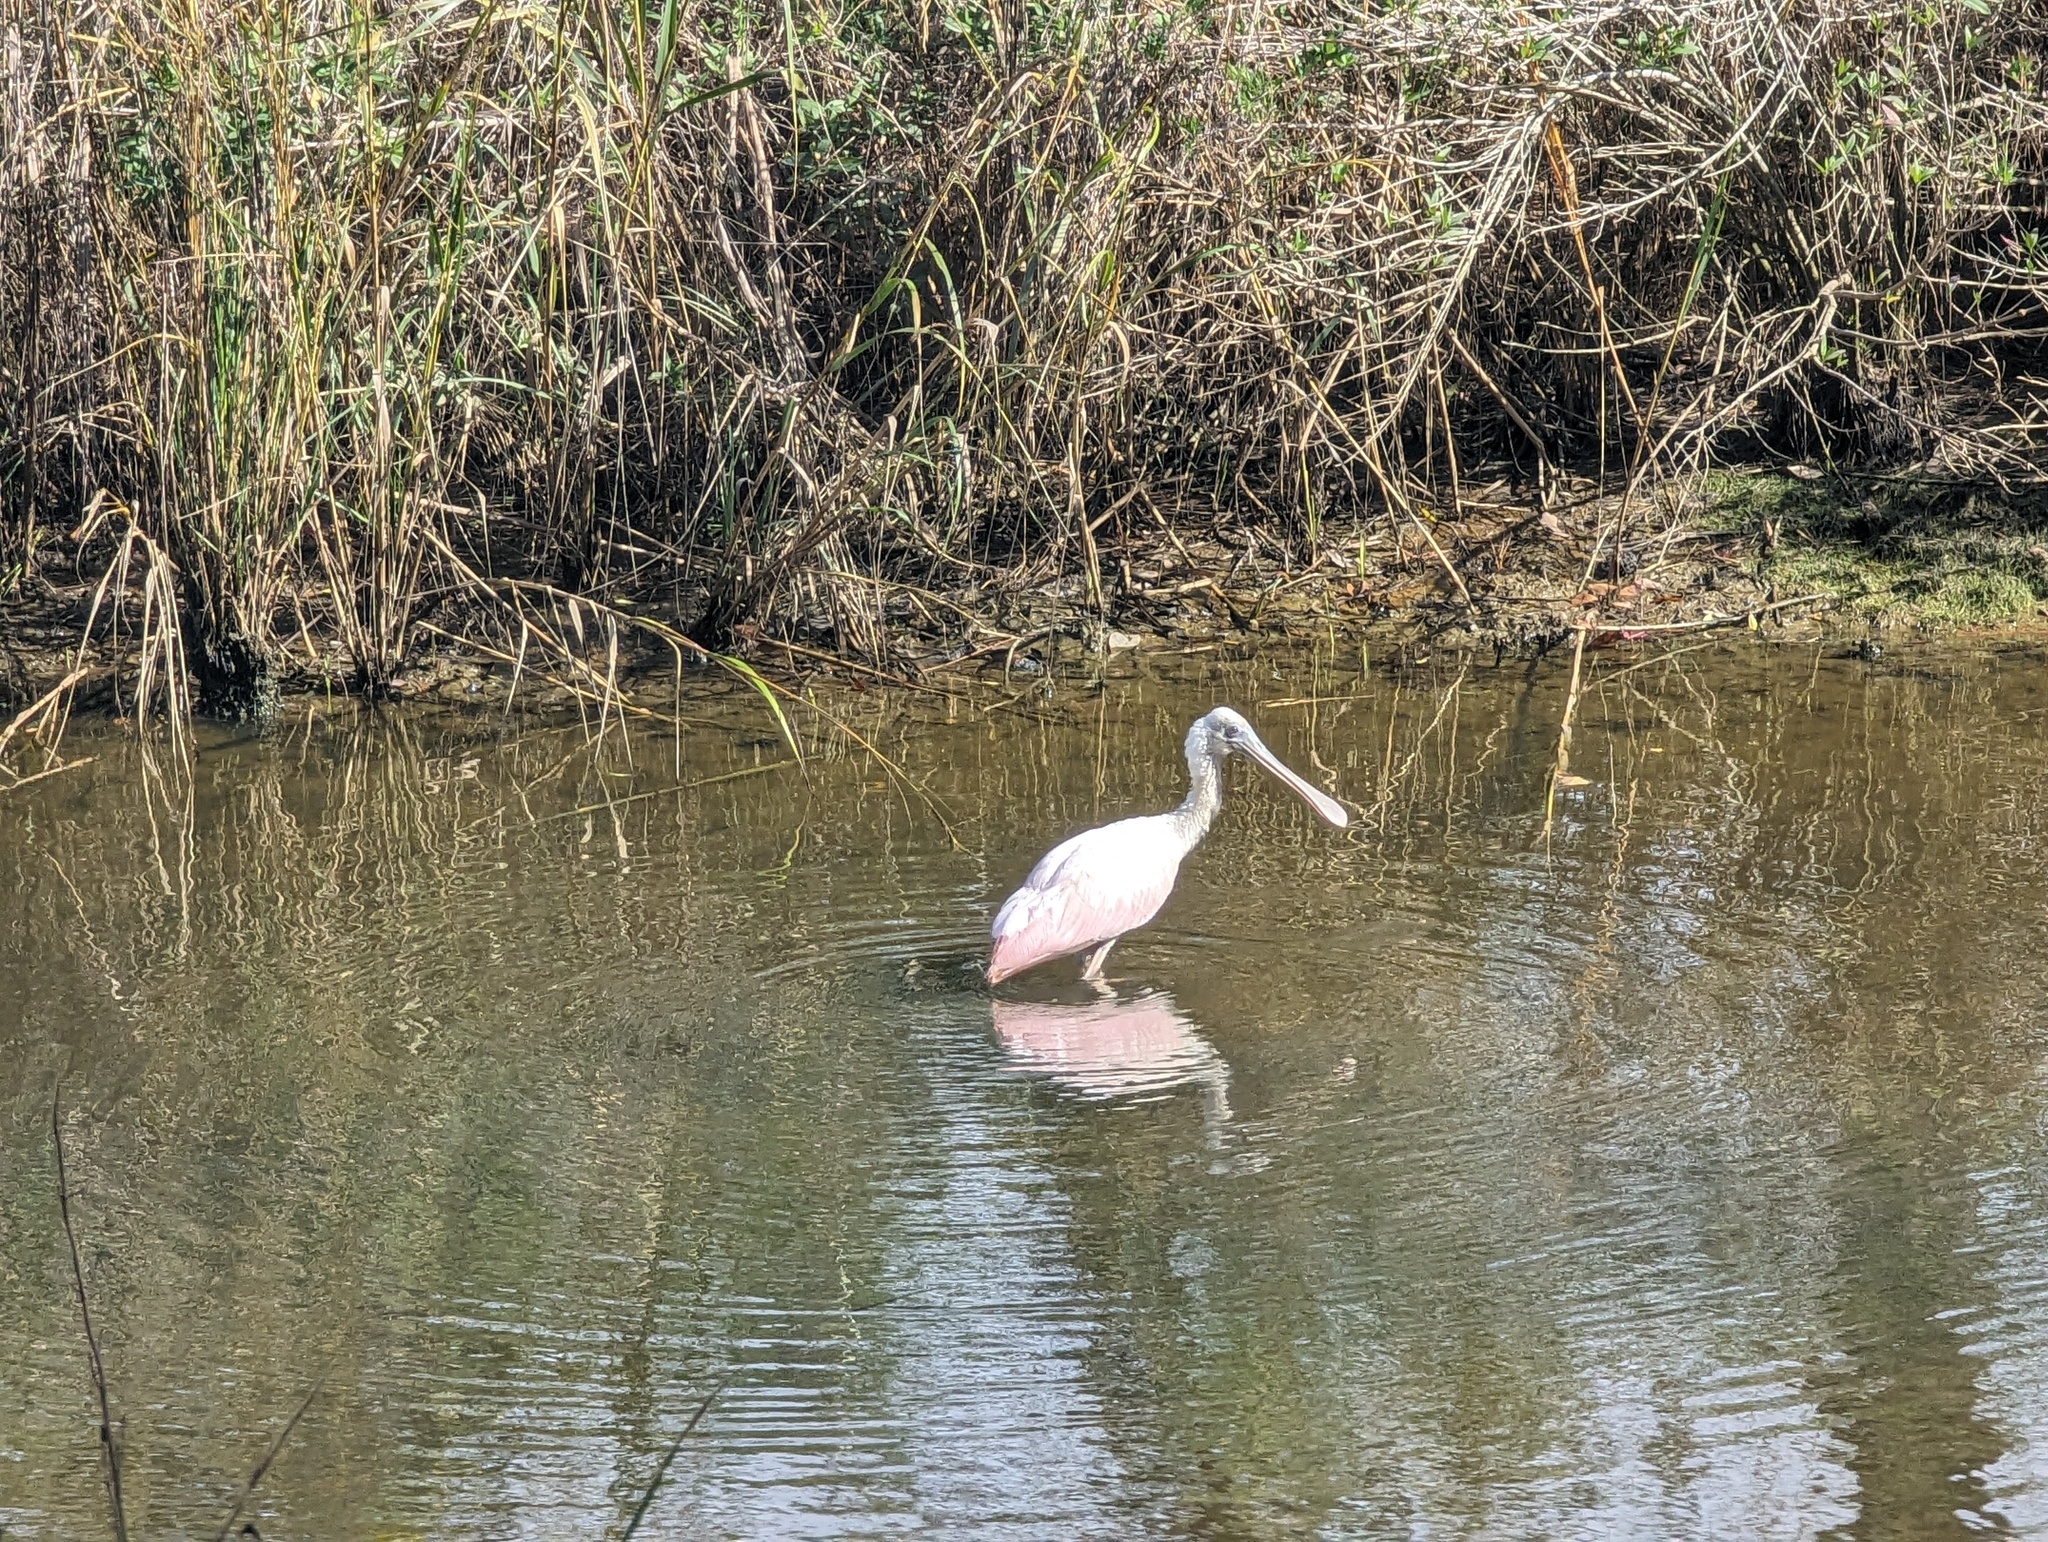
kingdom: Animalia
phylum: Chordata
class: Aves
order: Pelecaniformes
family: Threskiornithidae
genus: Platalea
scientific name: Platalea ajaja
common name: Roseate spoonbill
